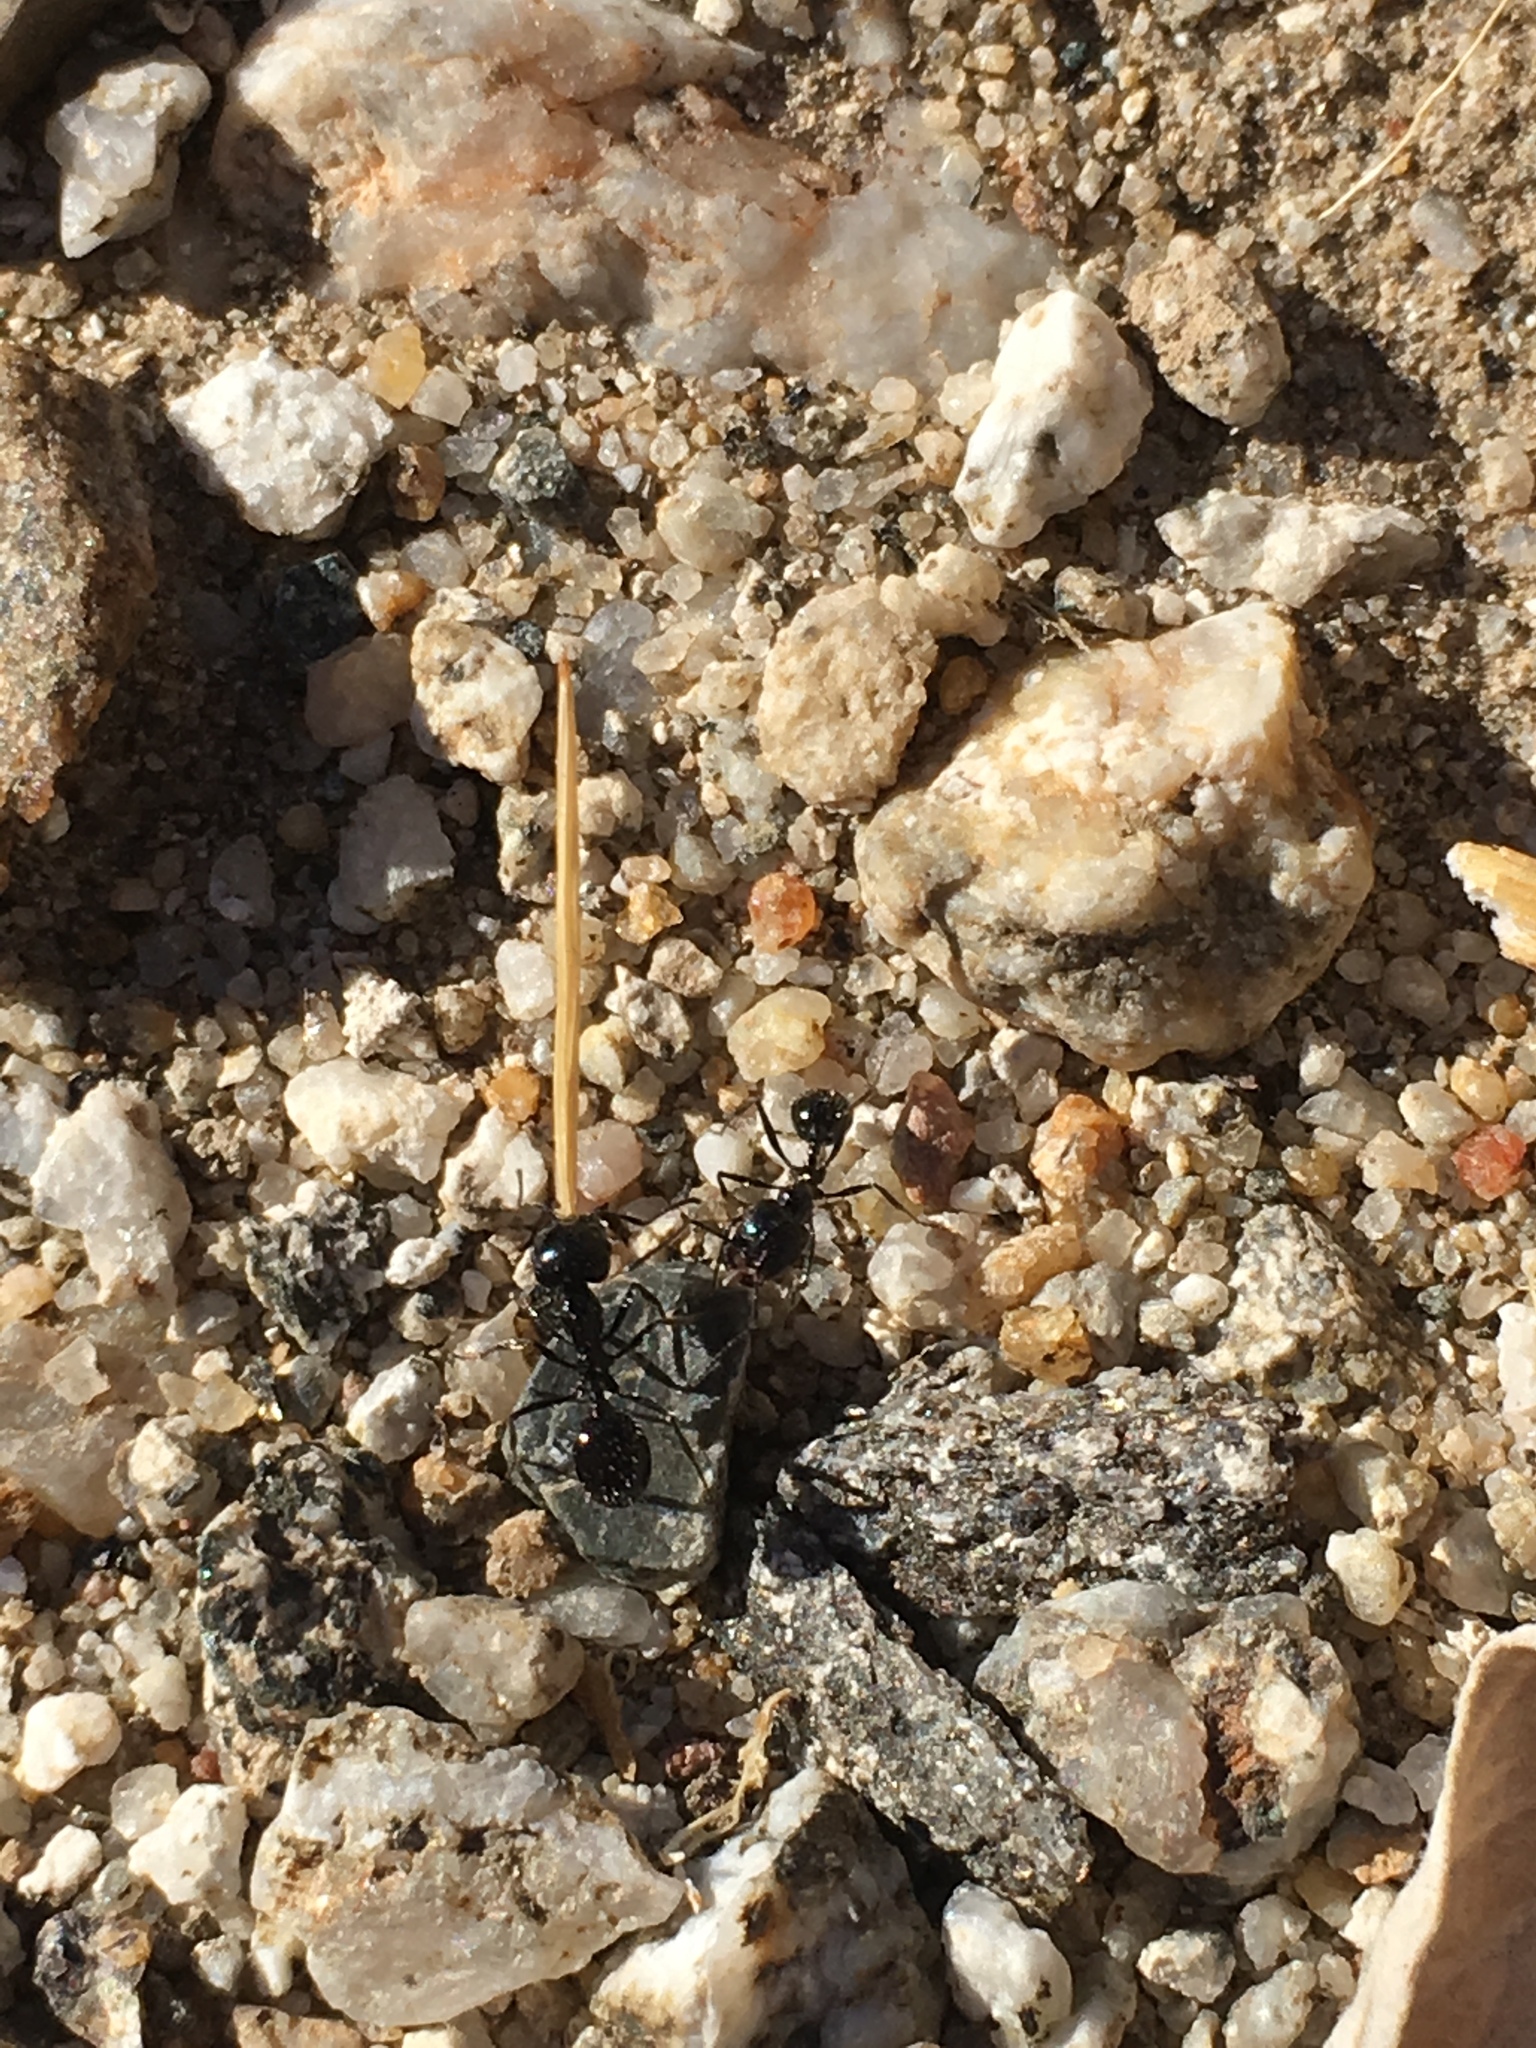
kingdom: Animalia
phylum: Arthropoda
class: Insecta
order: Hymenoptera
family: Formicidae
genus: Messor
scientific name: Messor pergandei
